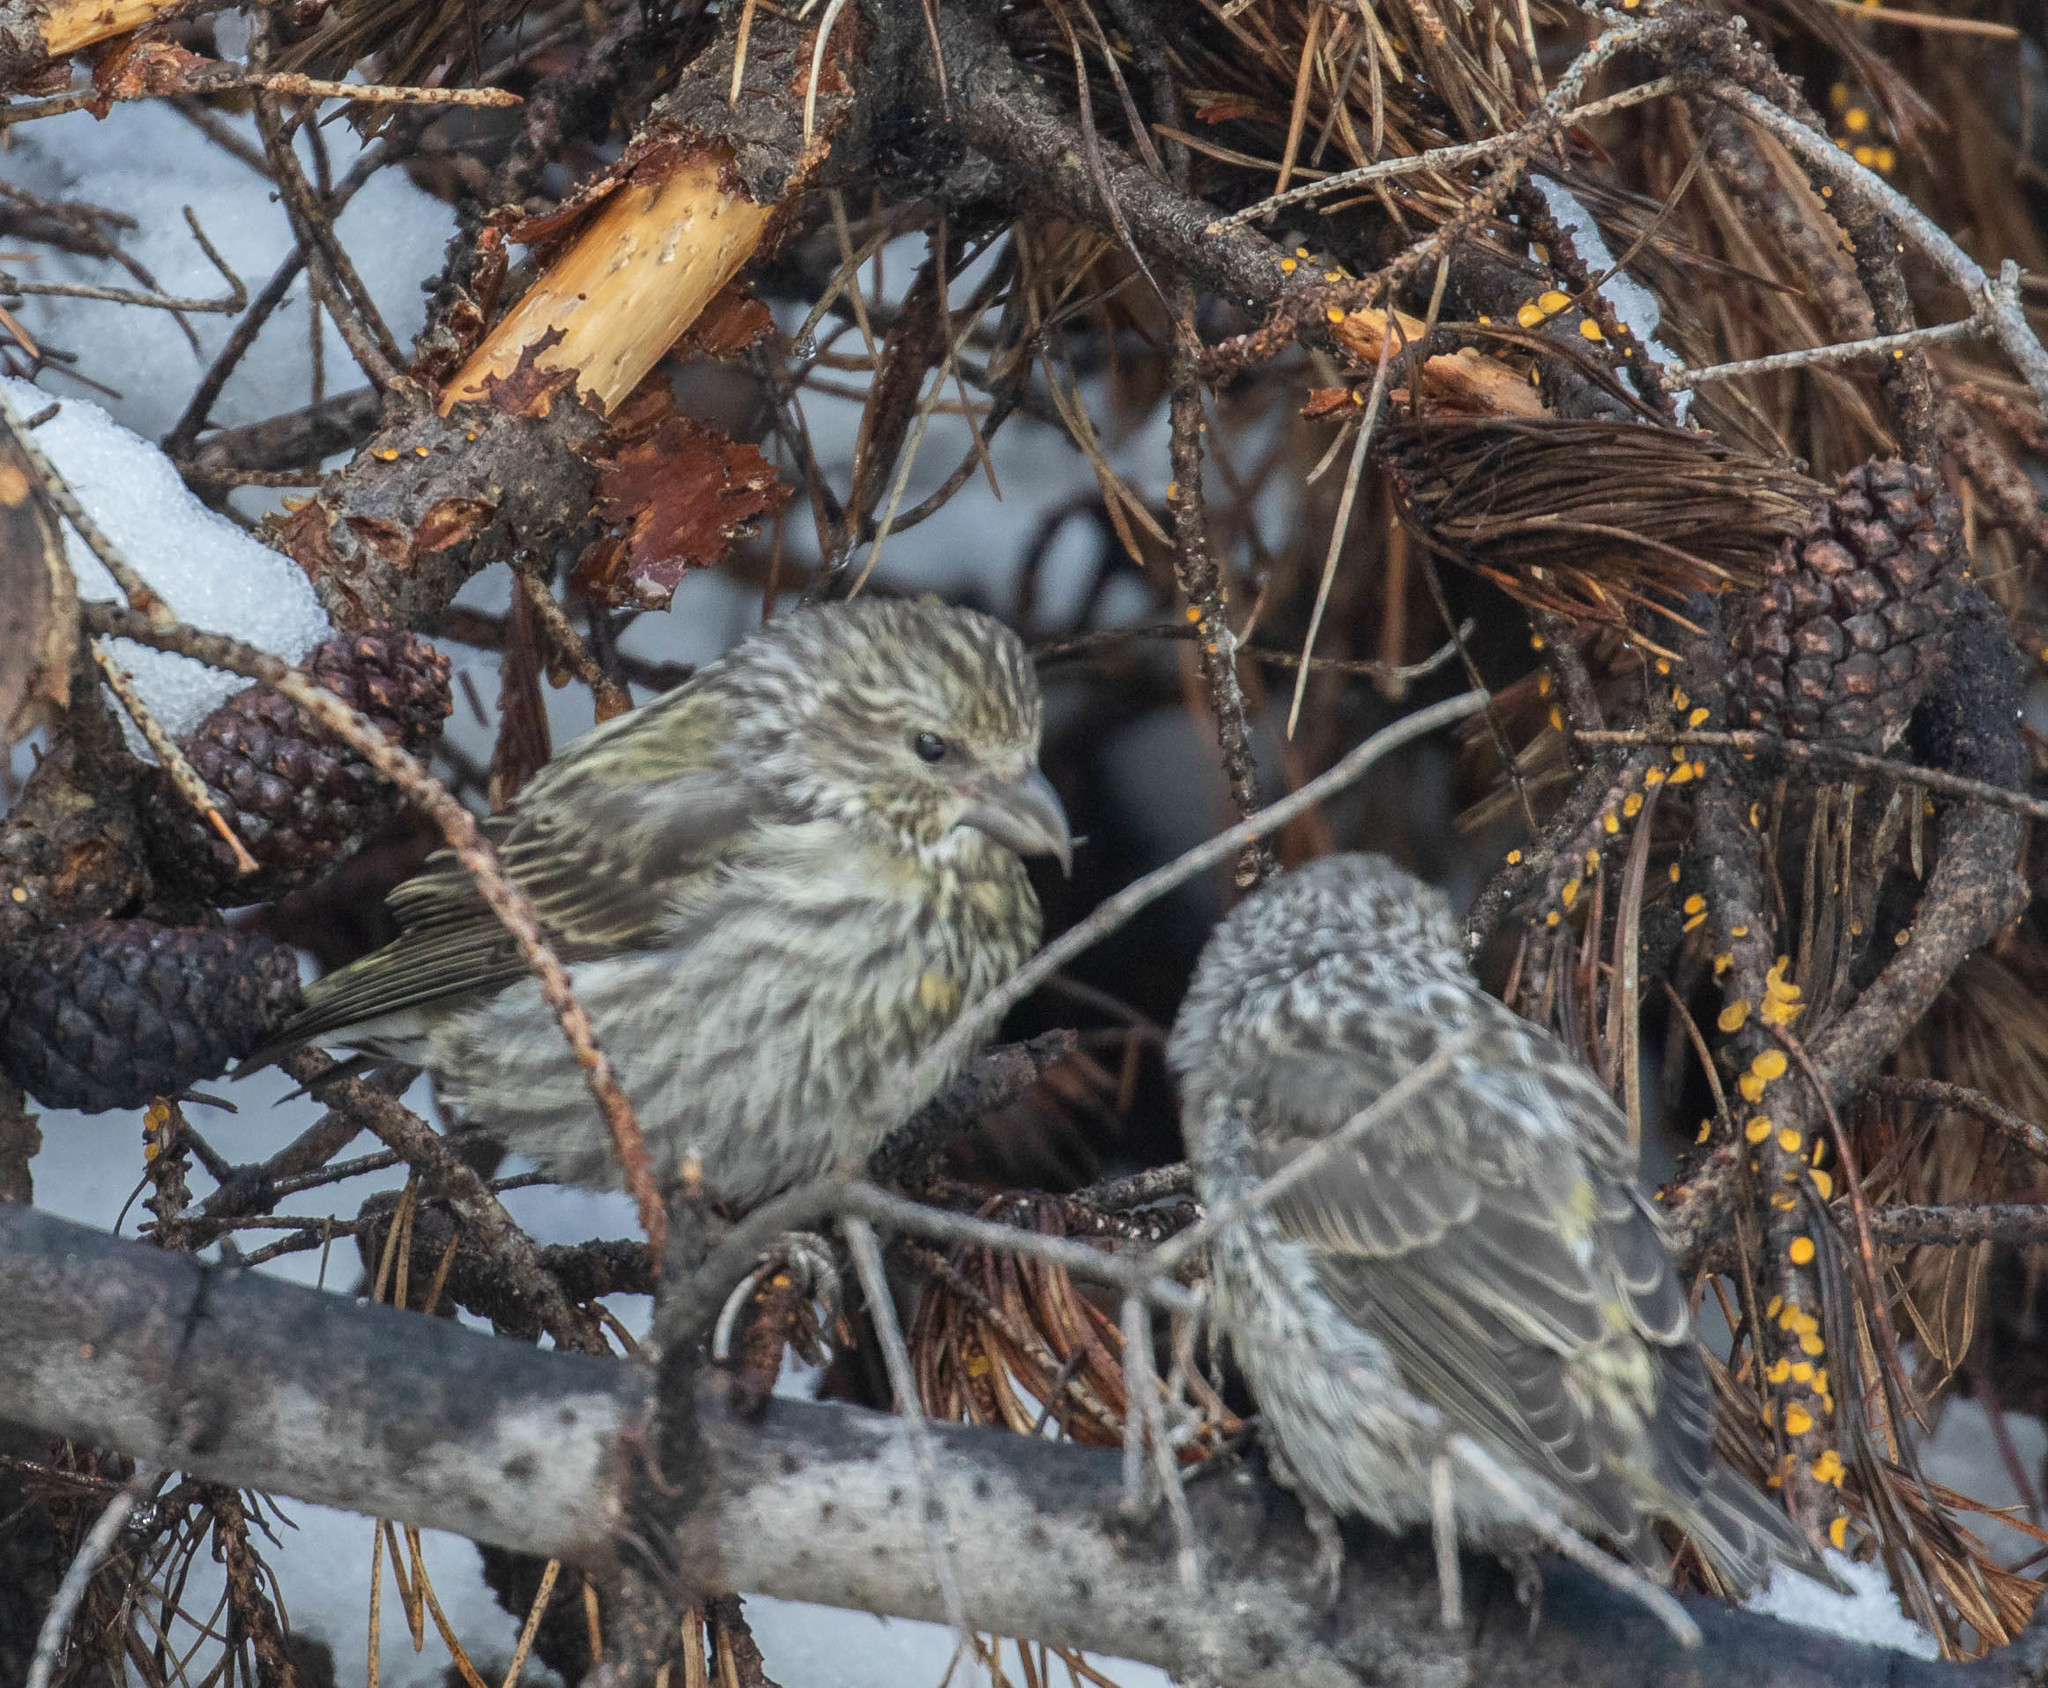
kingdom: Animalia
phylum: Chordata
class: Aves
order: Passeriformes
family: Fringillidae
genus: Loxia
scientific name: Loxia sinesciuris
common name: Cassia crossbill
